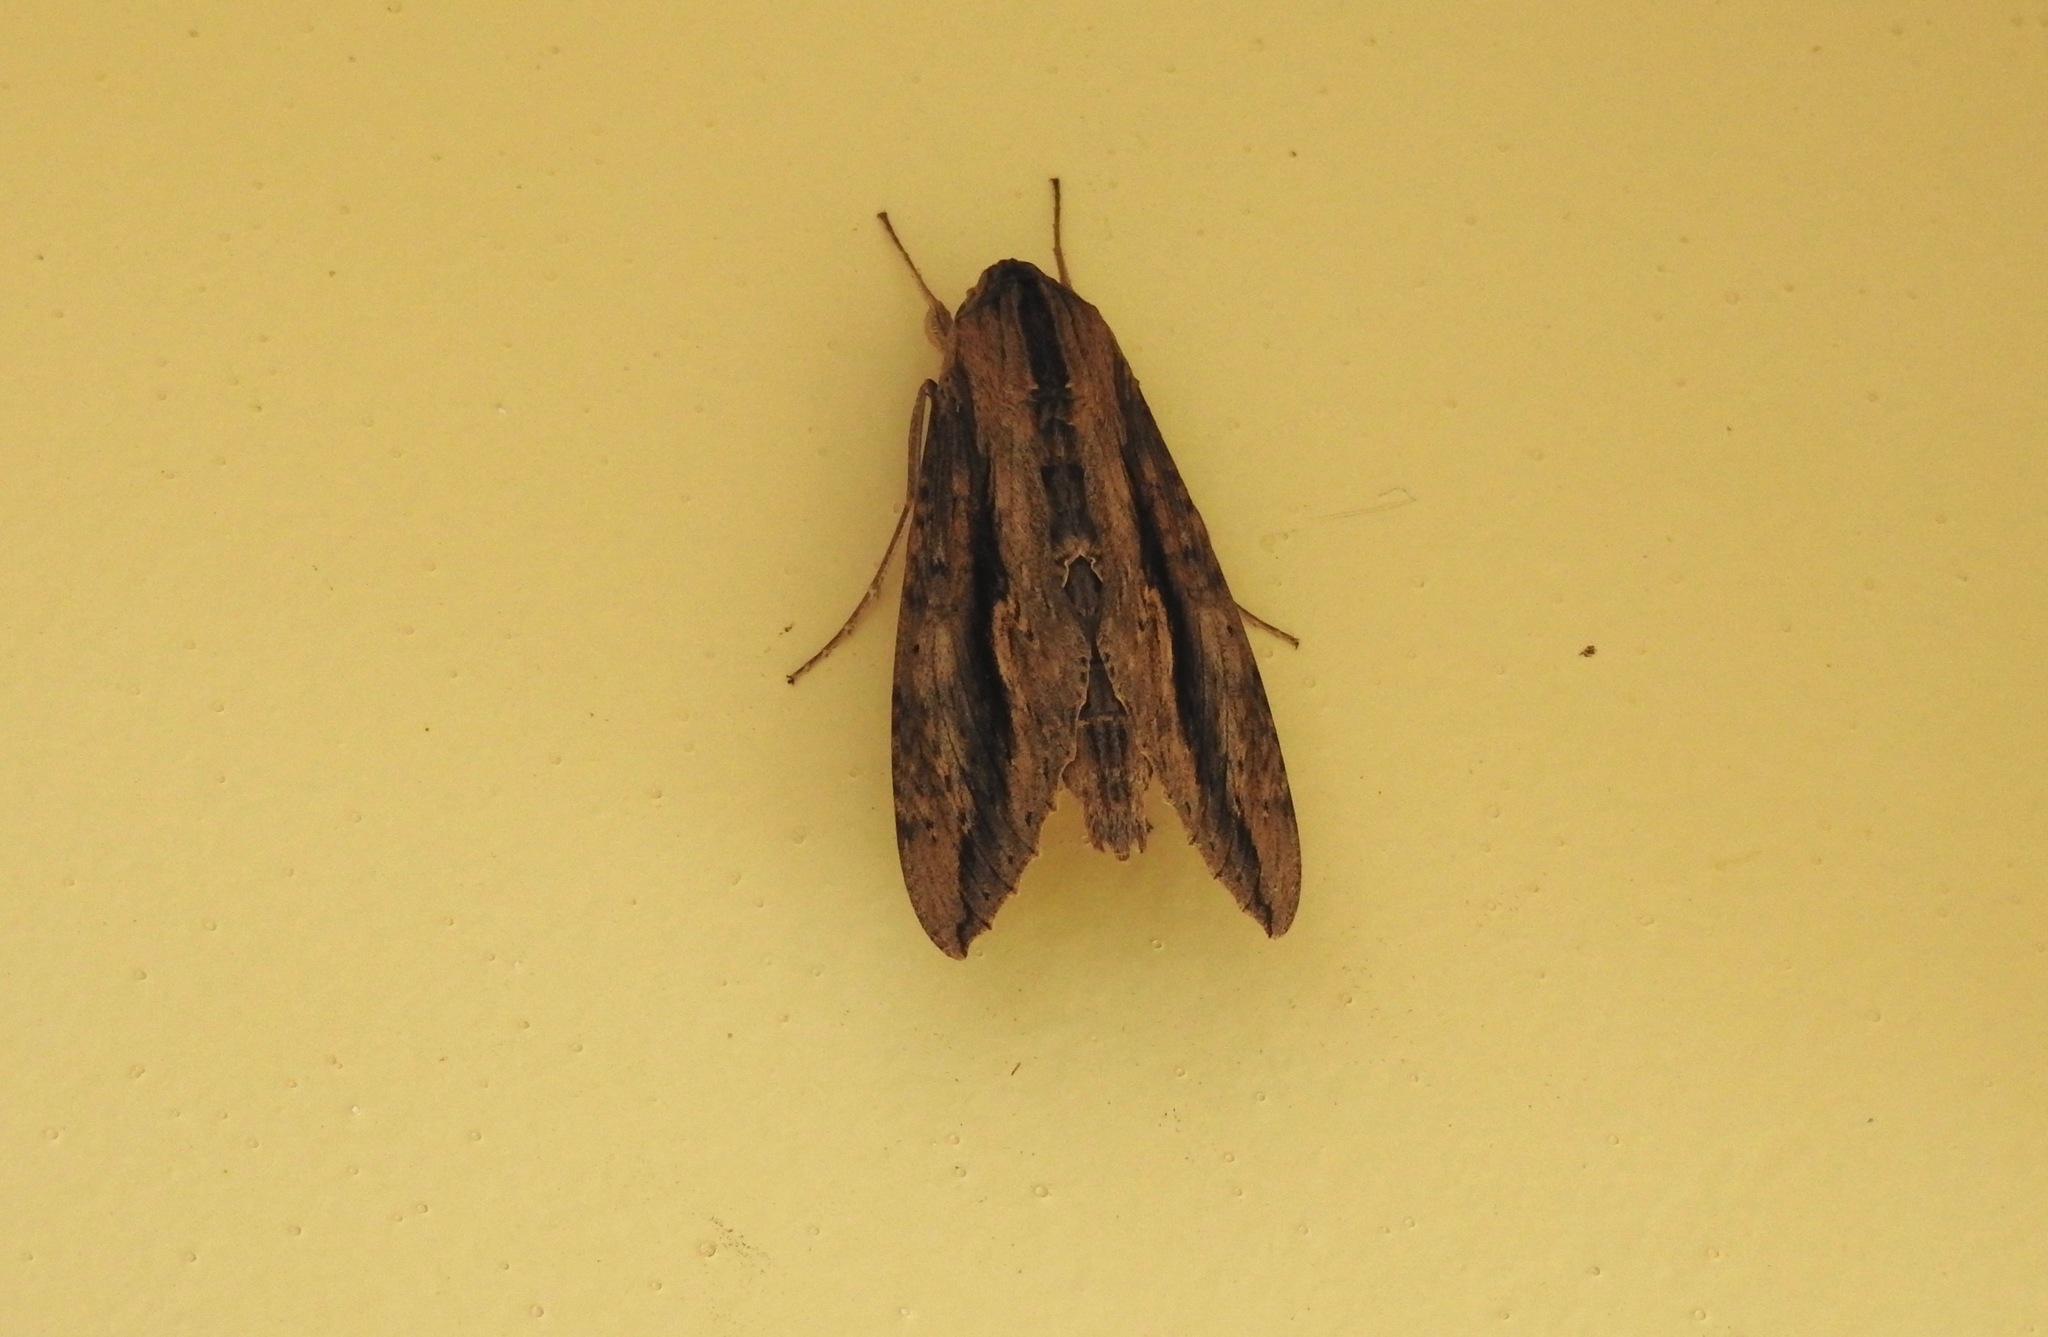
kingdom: Animalia
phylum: Arthropoda
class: Insecta
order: Lepidoptera
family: Sphingidae
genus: Erinnyis
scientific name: Erinnyis ello
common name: Ello sphinx
